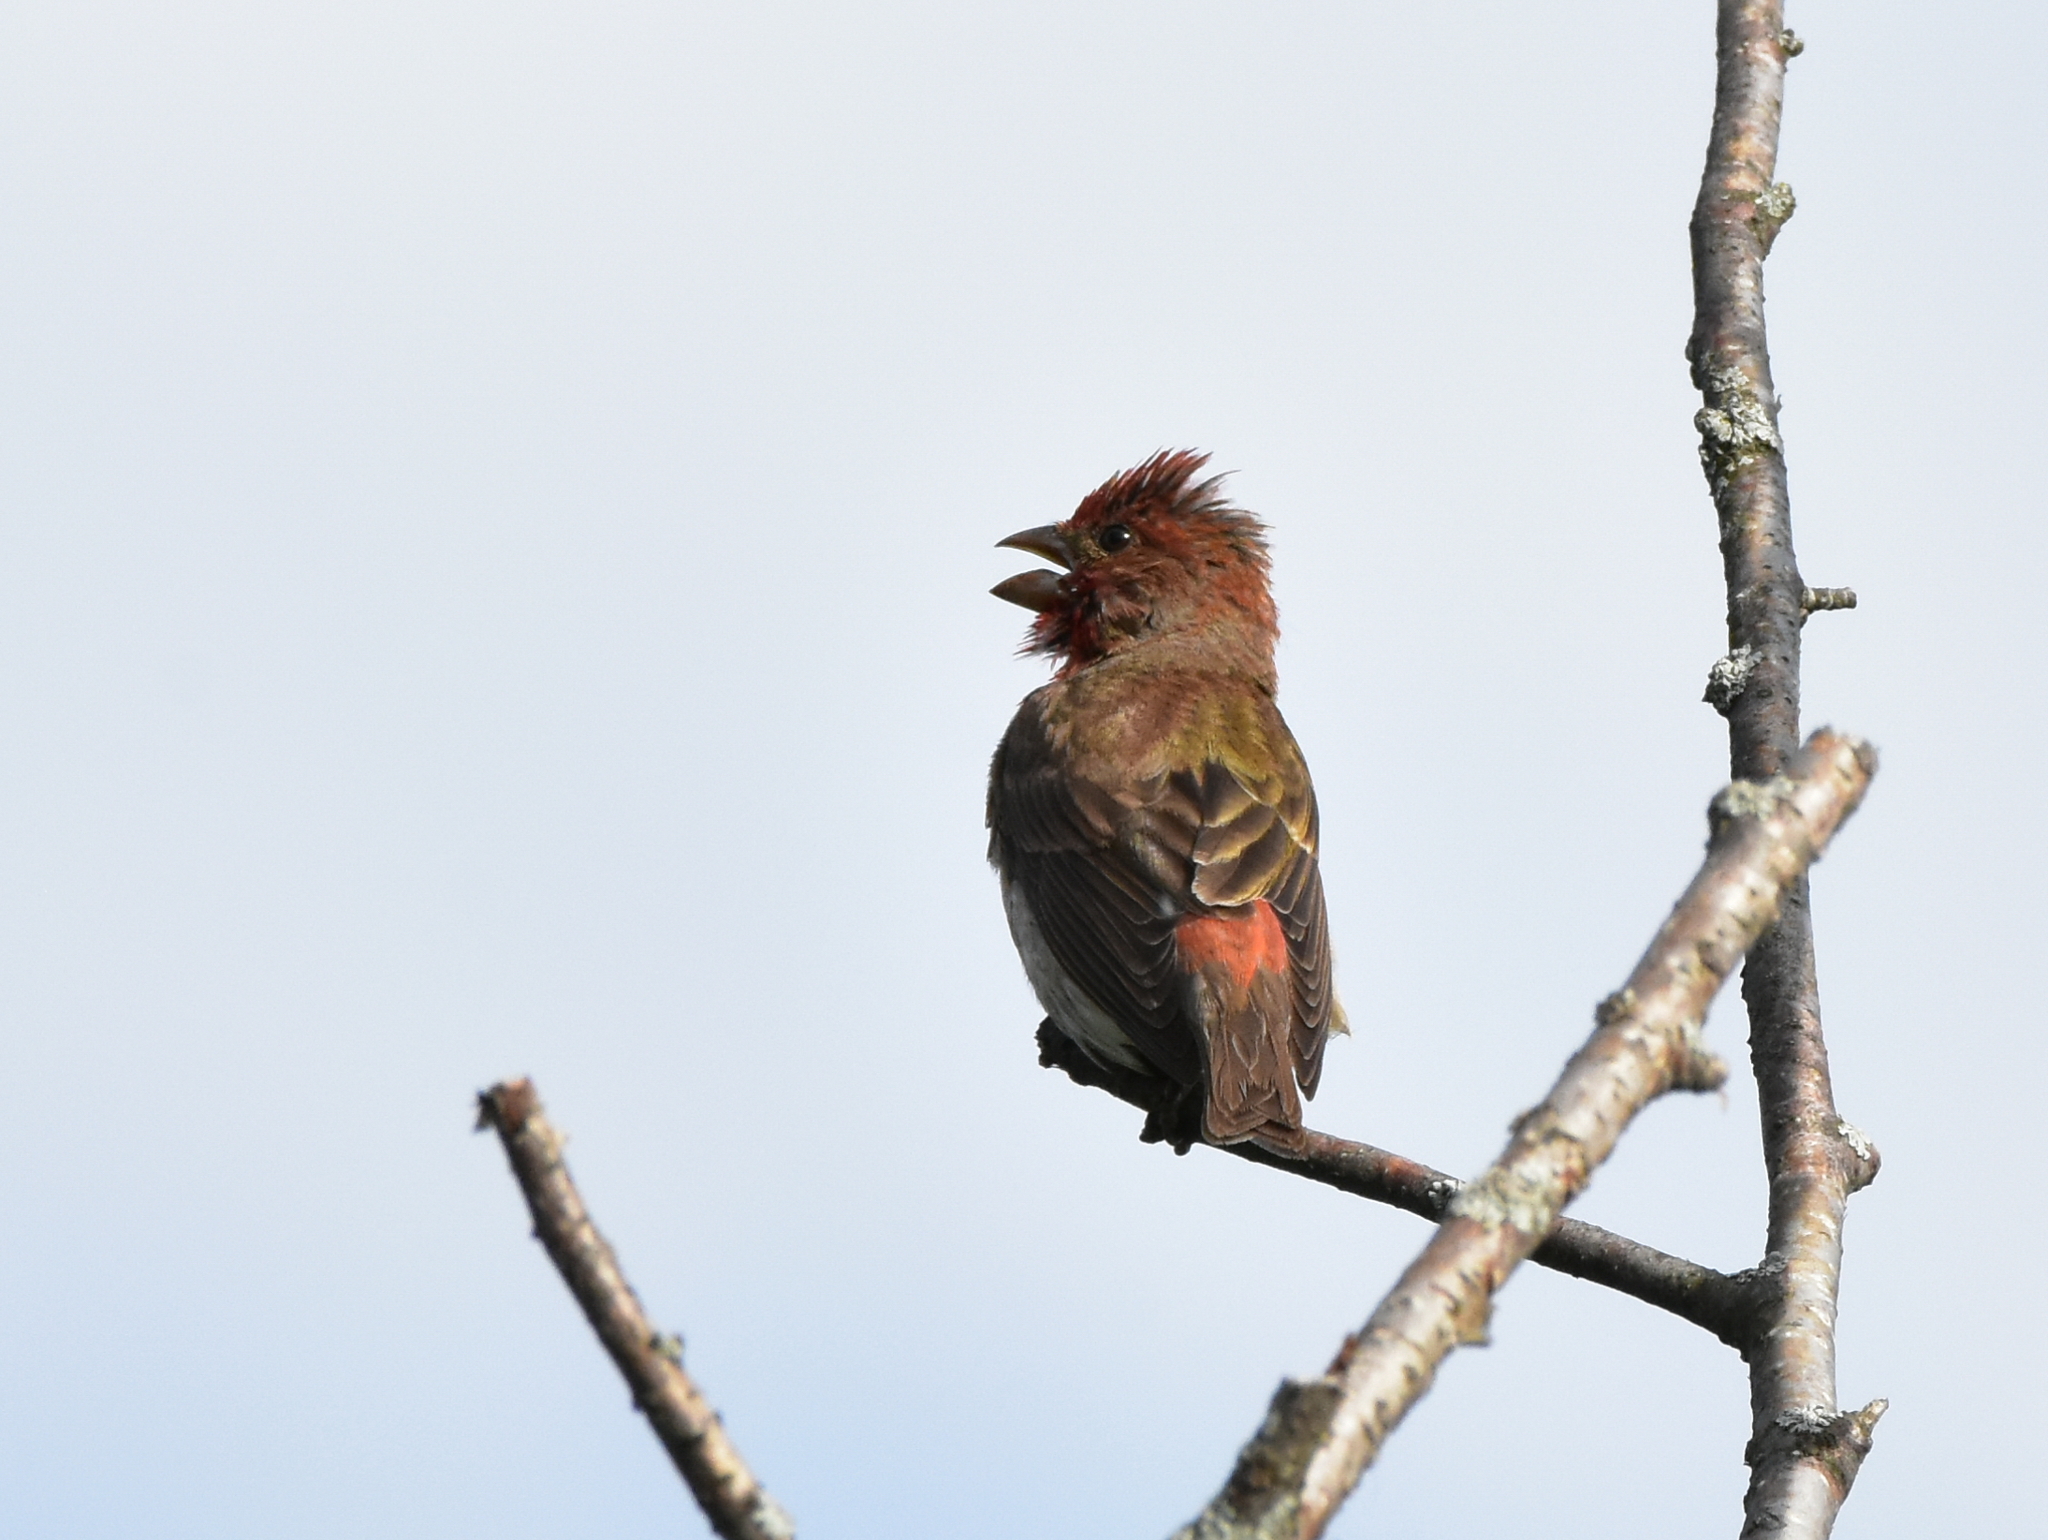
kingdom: Animalia
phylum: Chordata
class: Aves
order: Passeriformes
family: Fringillidae
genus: Carpodacus
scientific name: Carpodacus erythrinus
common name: Common rosefinch
